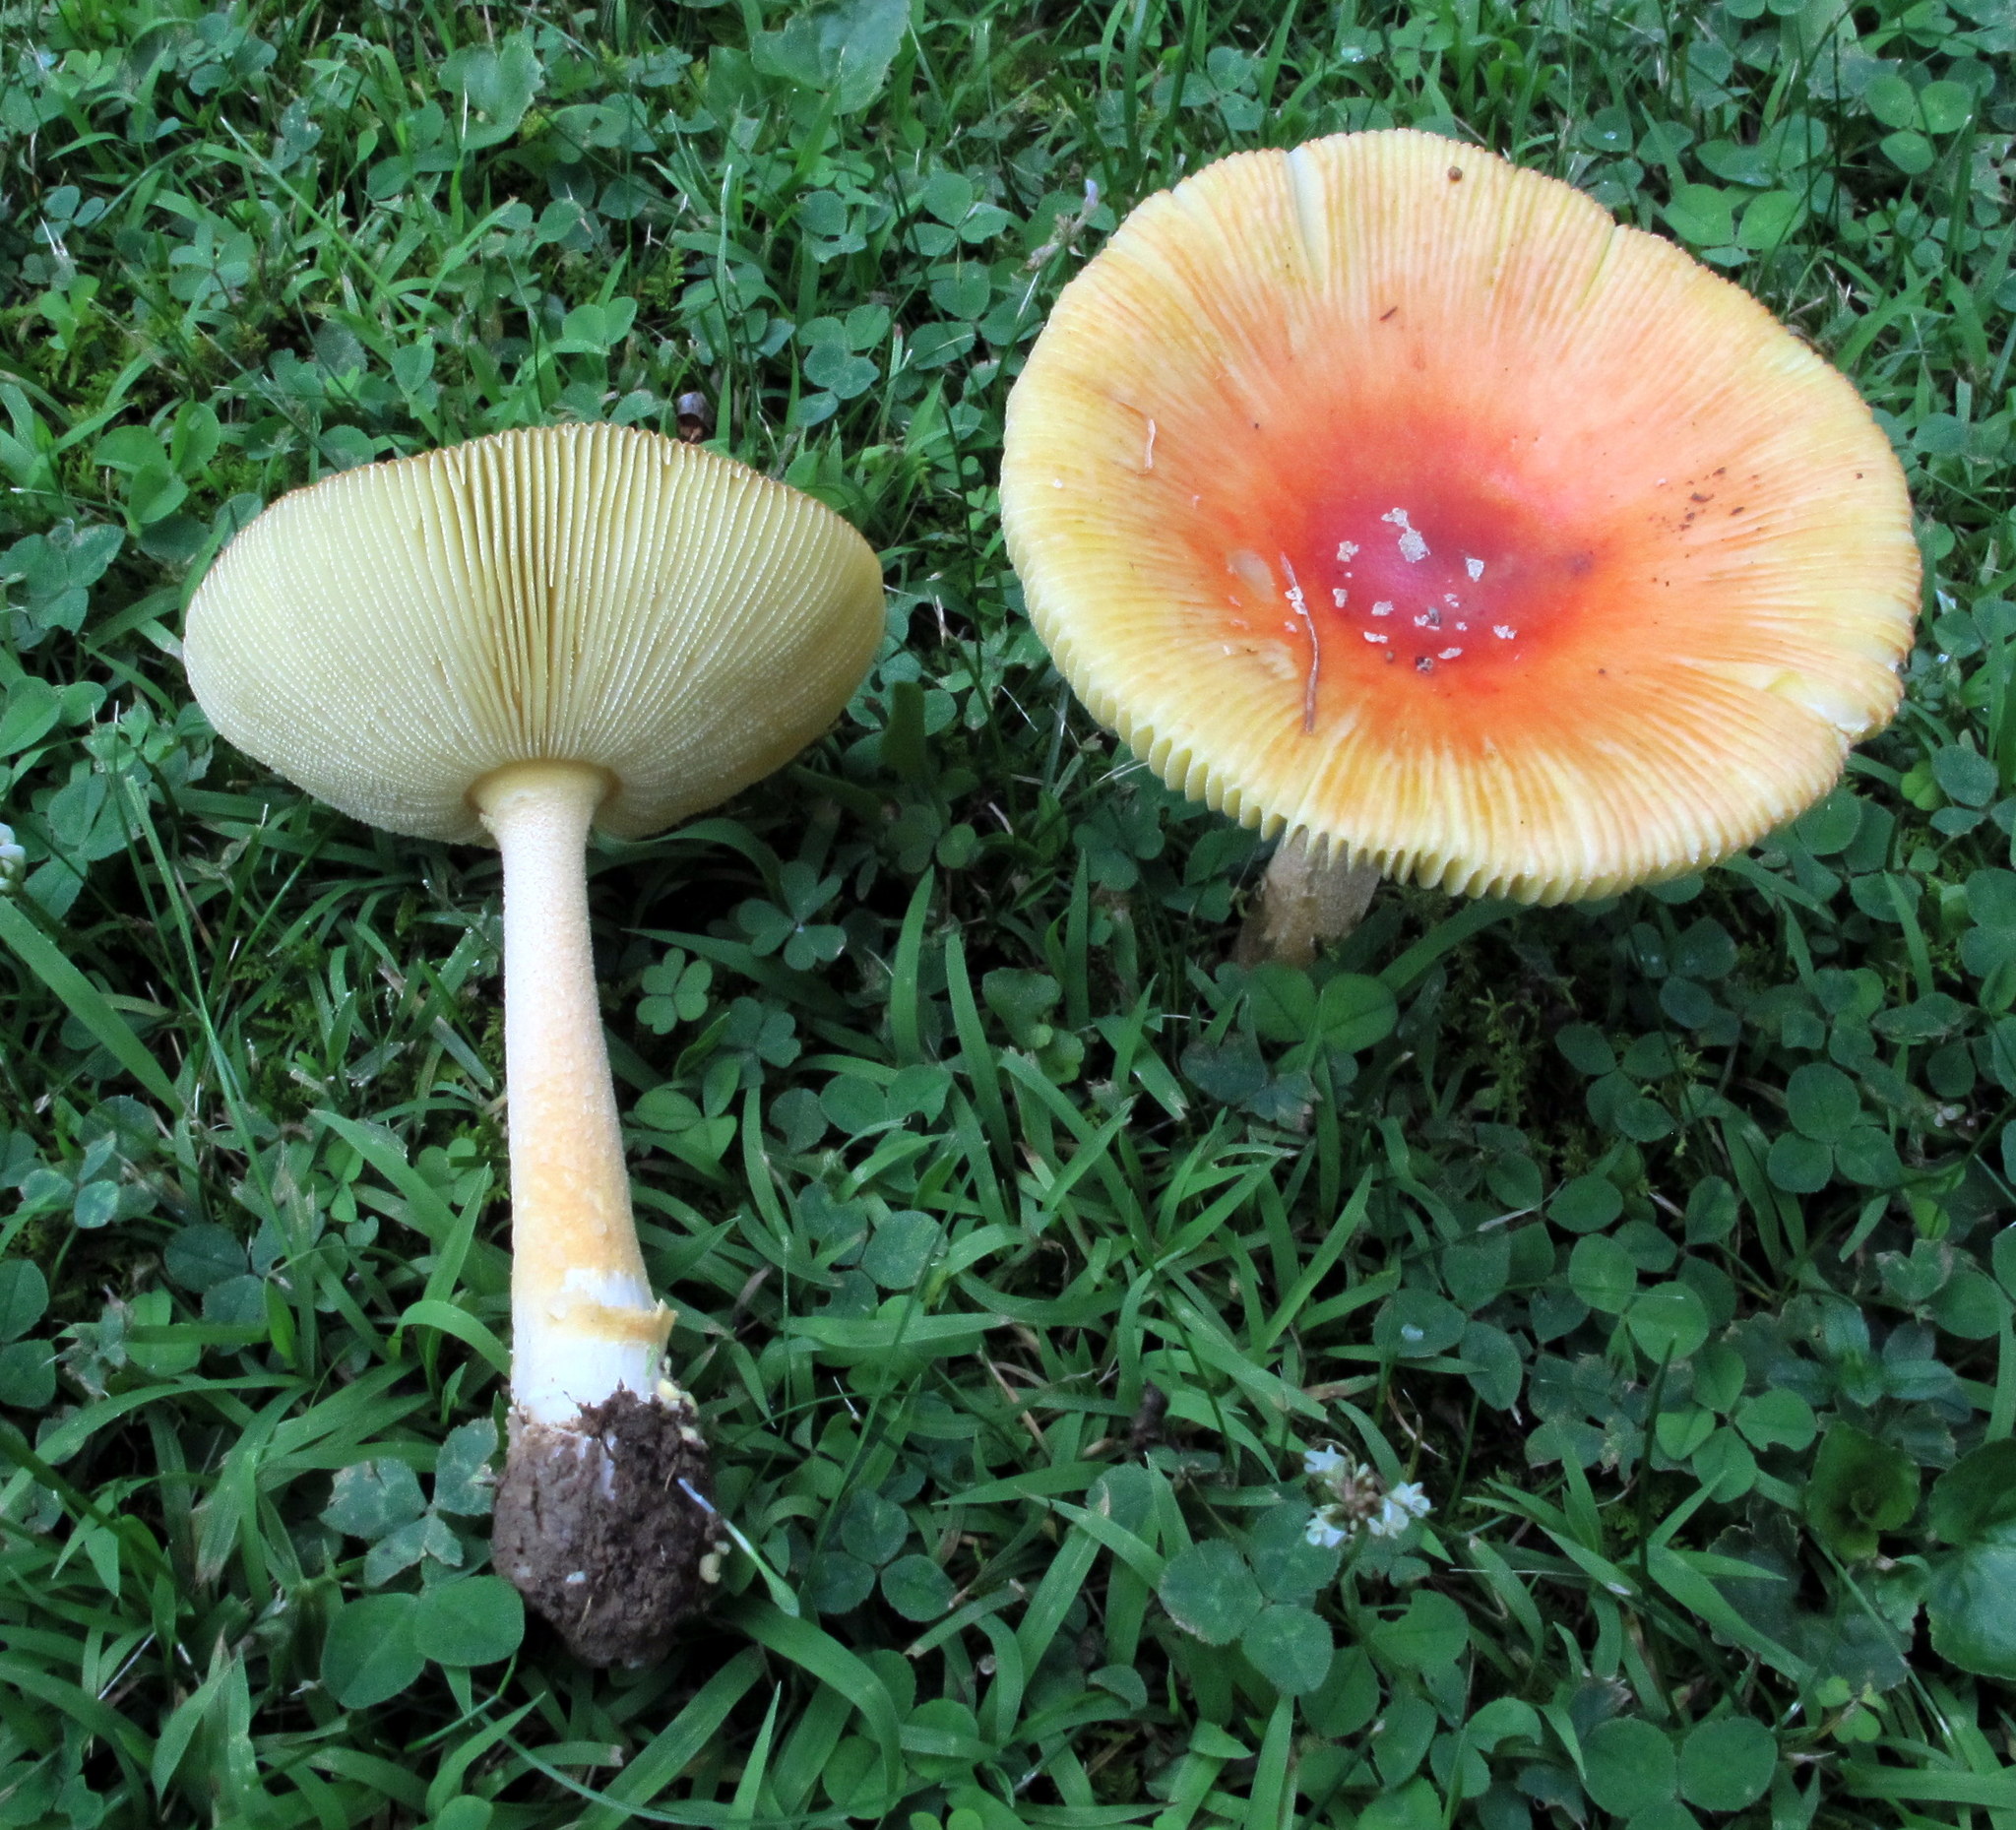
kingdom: Fungi
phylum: Basidiomycota
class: Agaricomycetes
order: Agaricales
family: Amanitaceae
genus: Amanita
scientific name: Amanita parcivolvata
